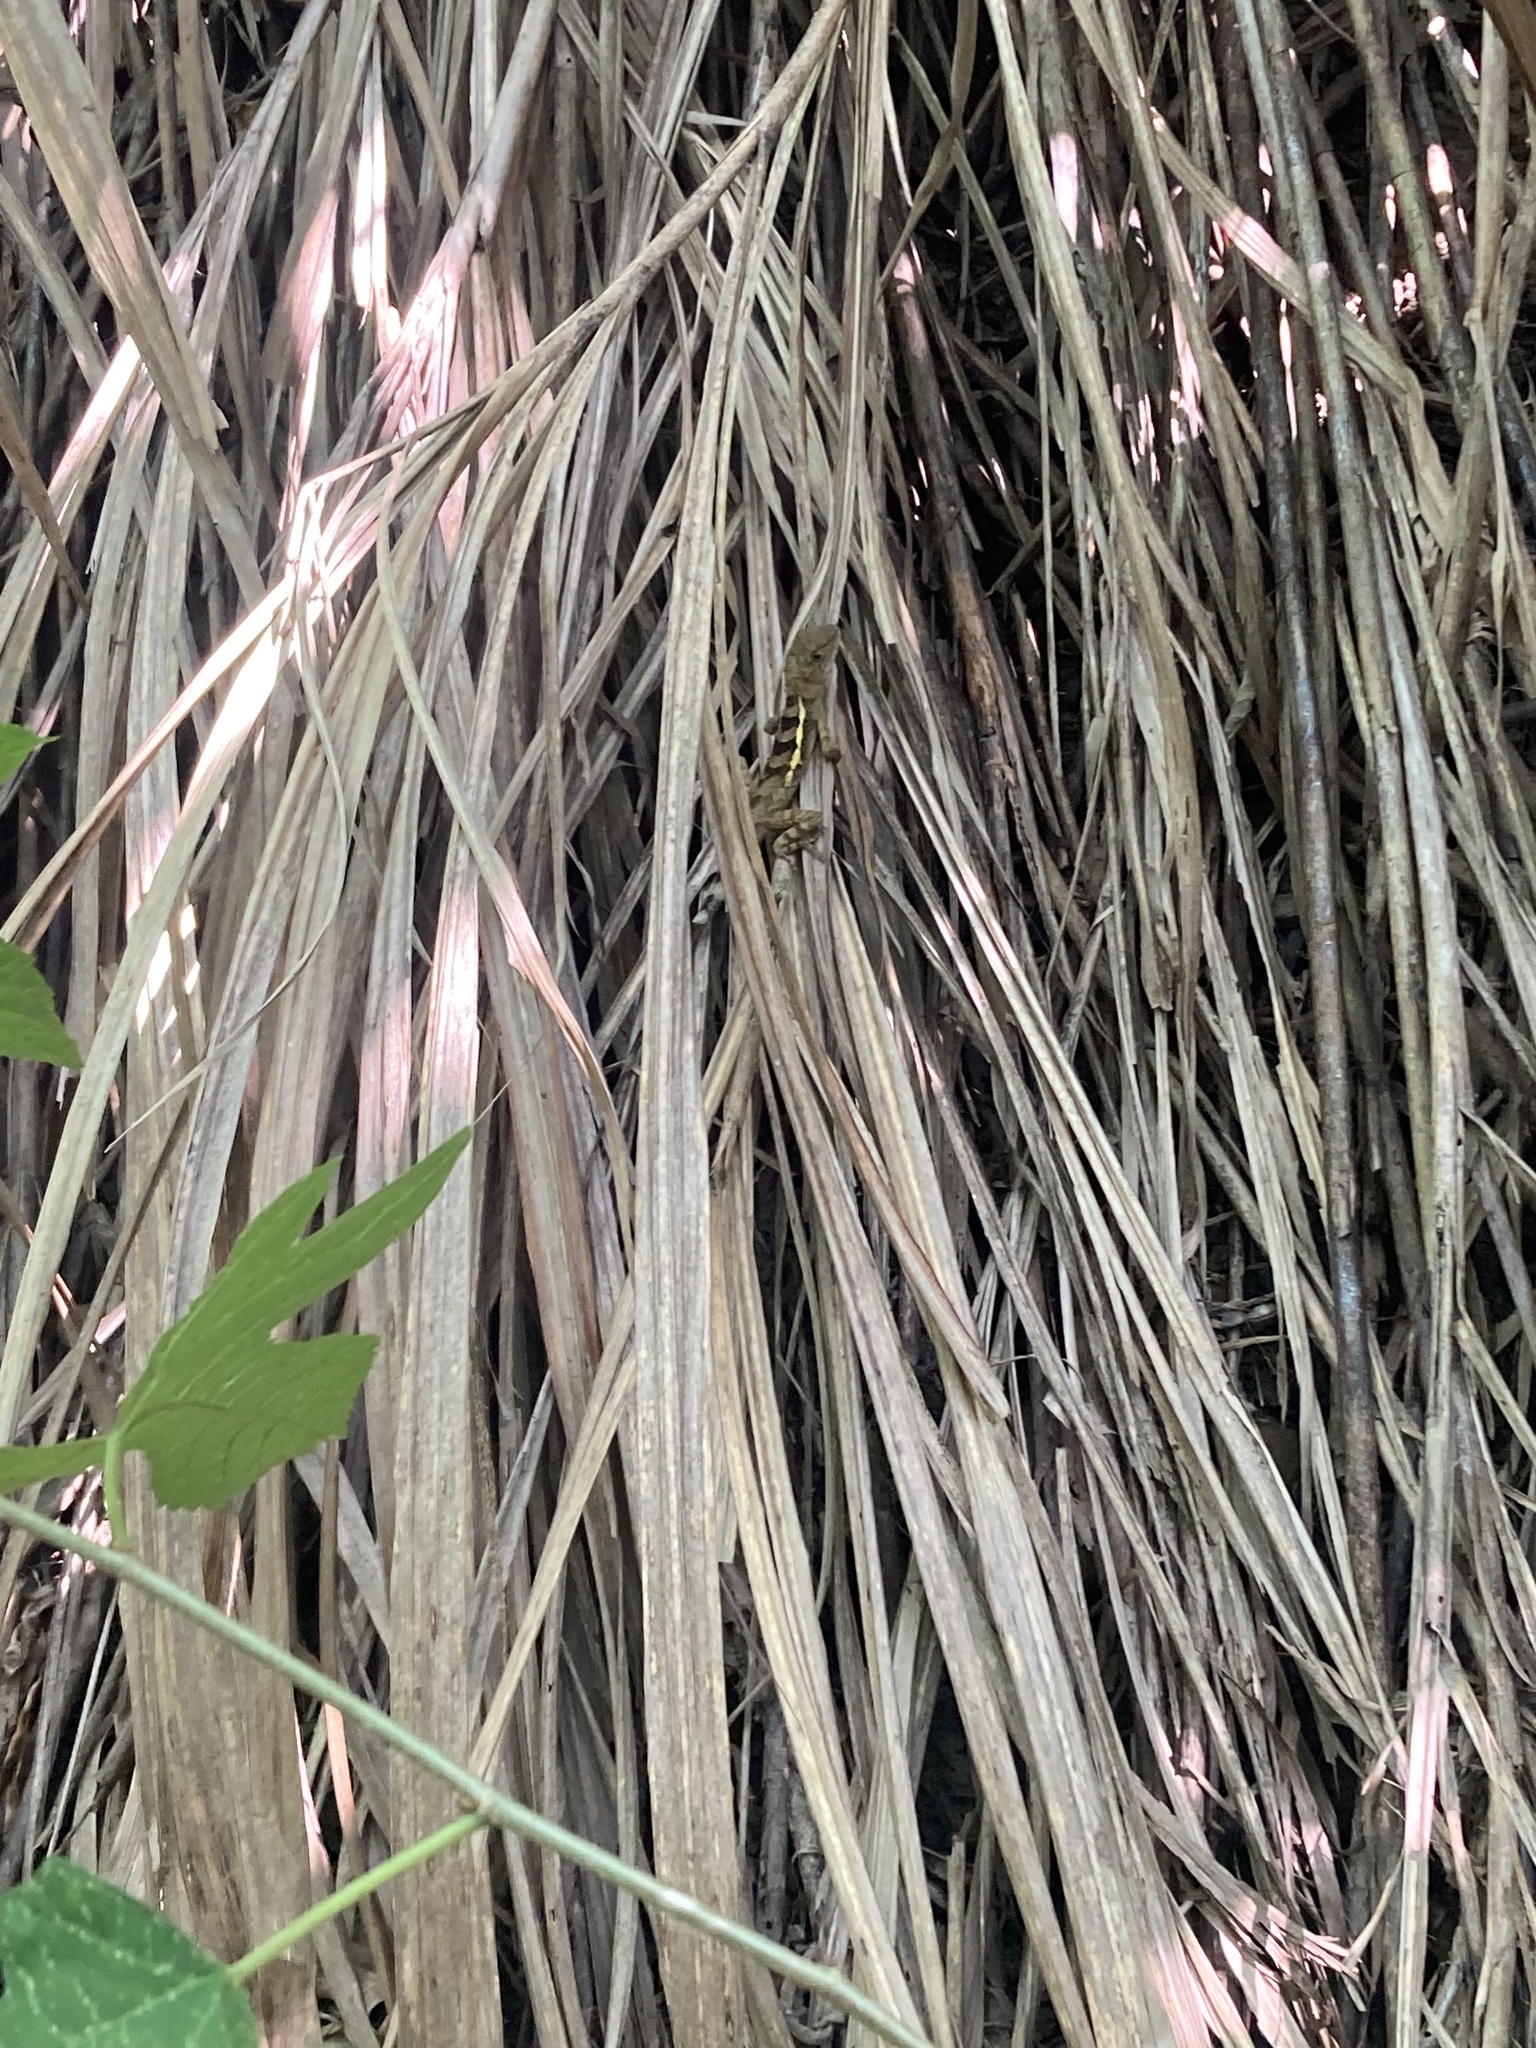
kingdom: Animalia
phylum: Chordata
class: Squamata
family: Agamidae
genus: Diploderma
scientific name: Diploderma swinhonis
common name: Taiwan japalure
